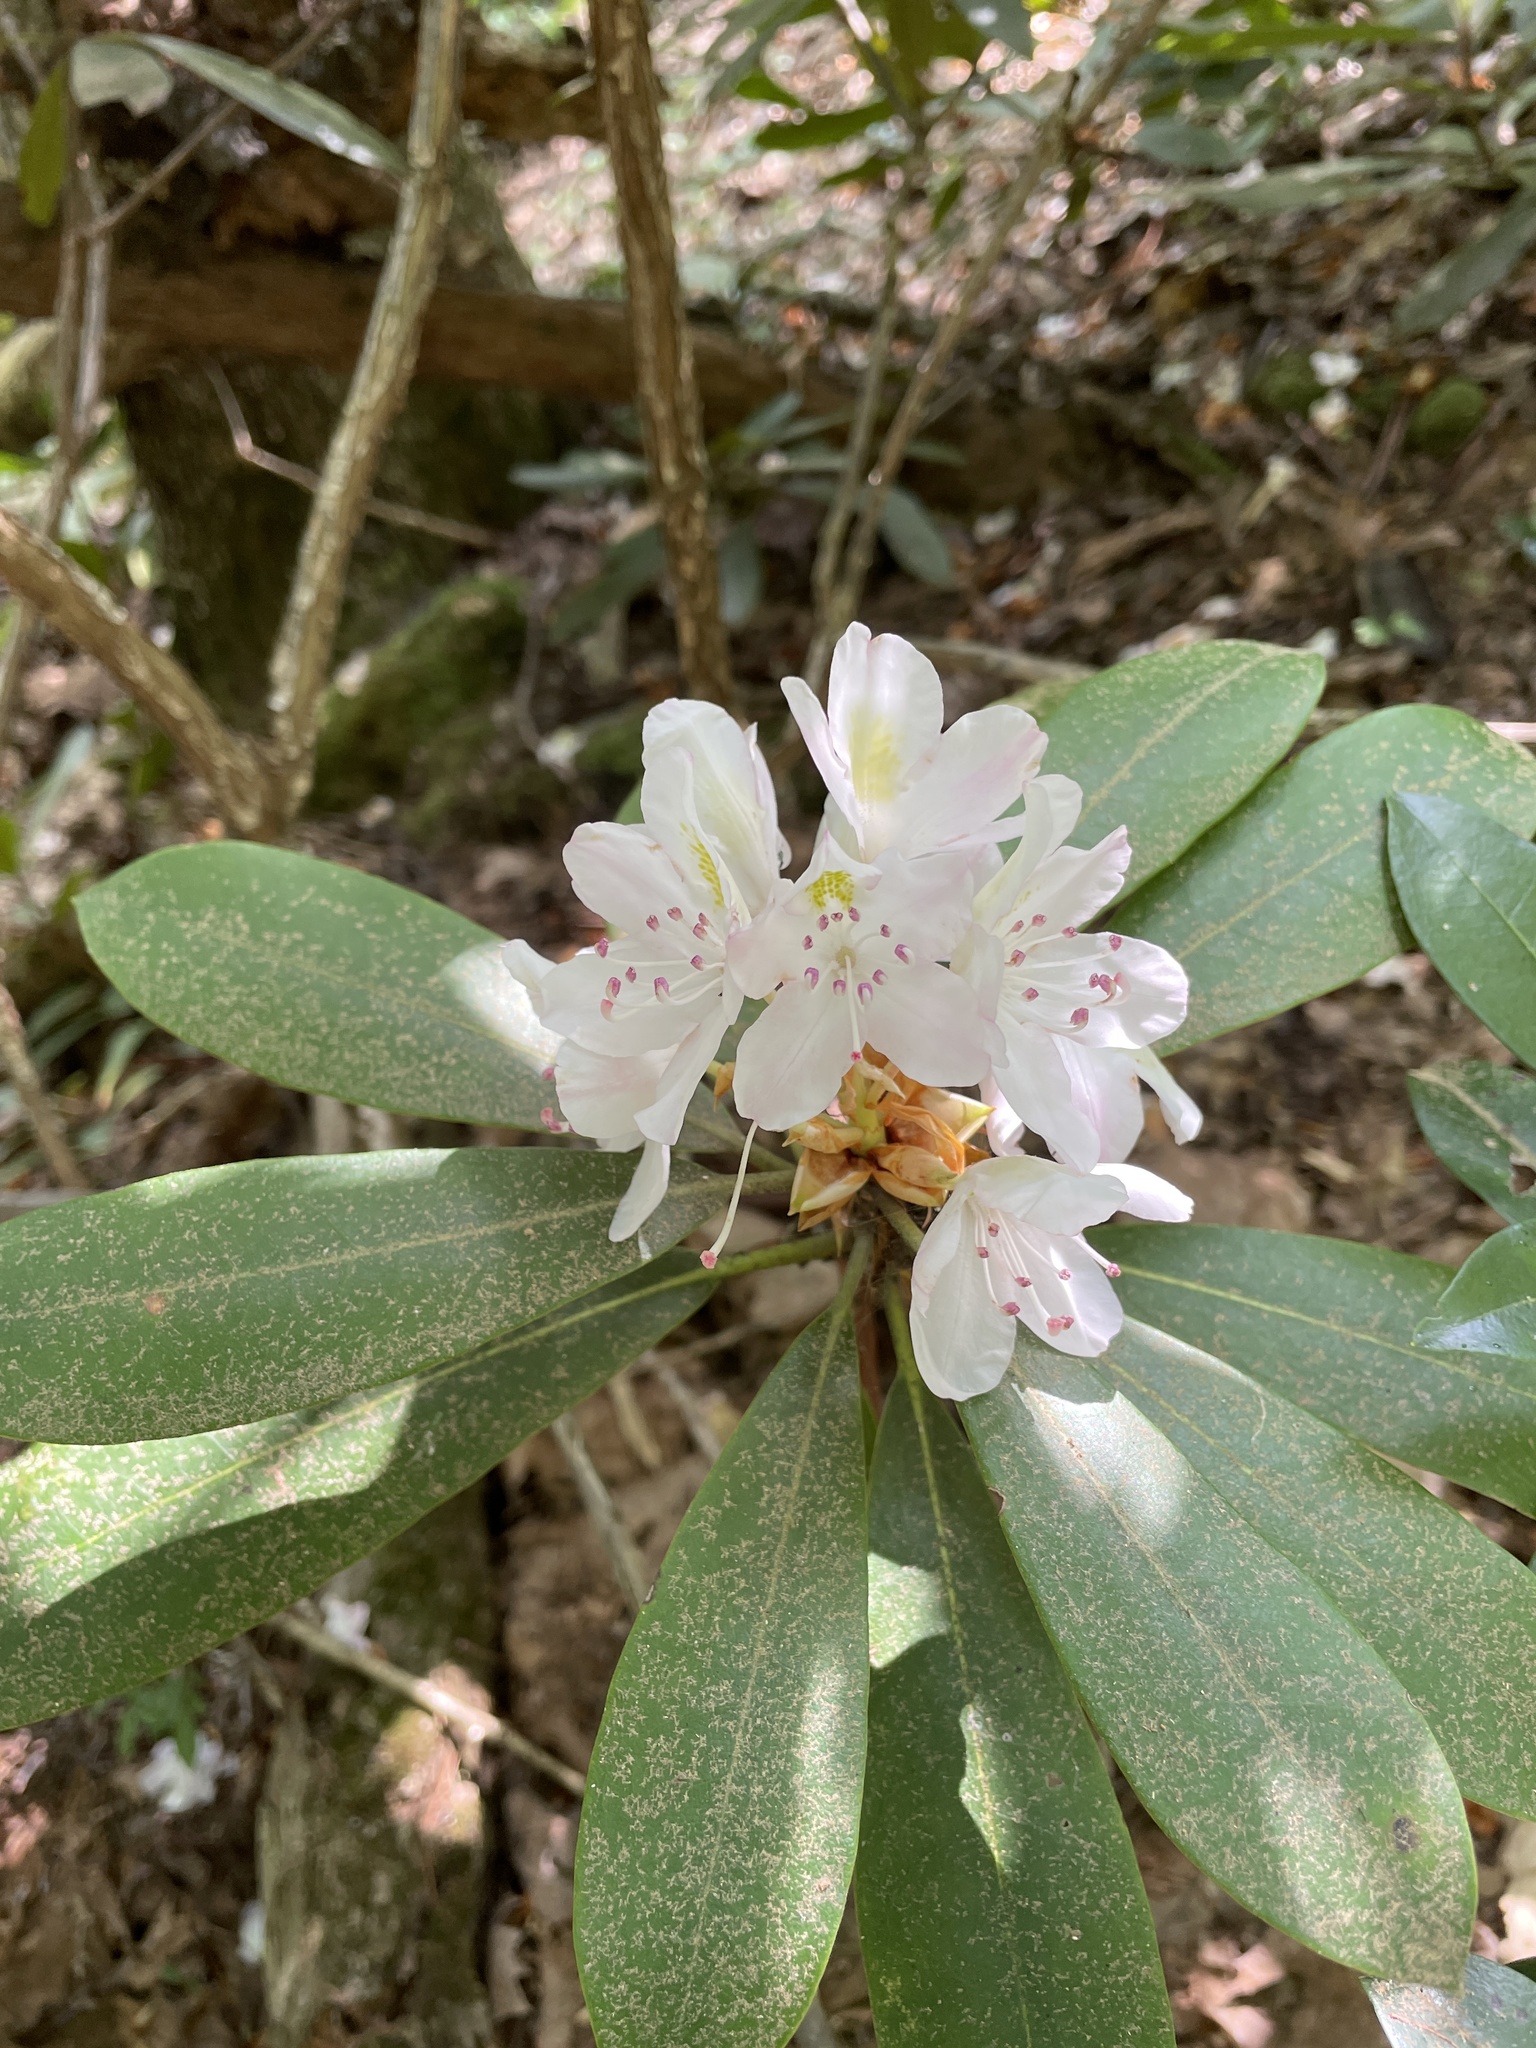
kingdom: Plantae
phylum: Tracheophyta
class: Magnoliopsida
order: Ericales
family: Ericaceae
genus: Rhododendron
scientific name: Rhododendron maximum
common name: Great rhododendron
